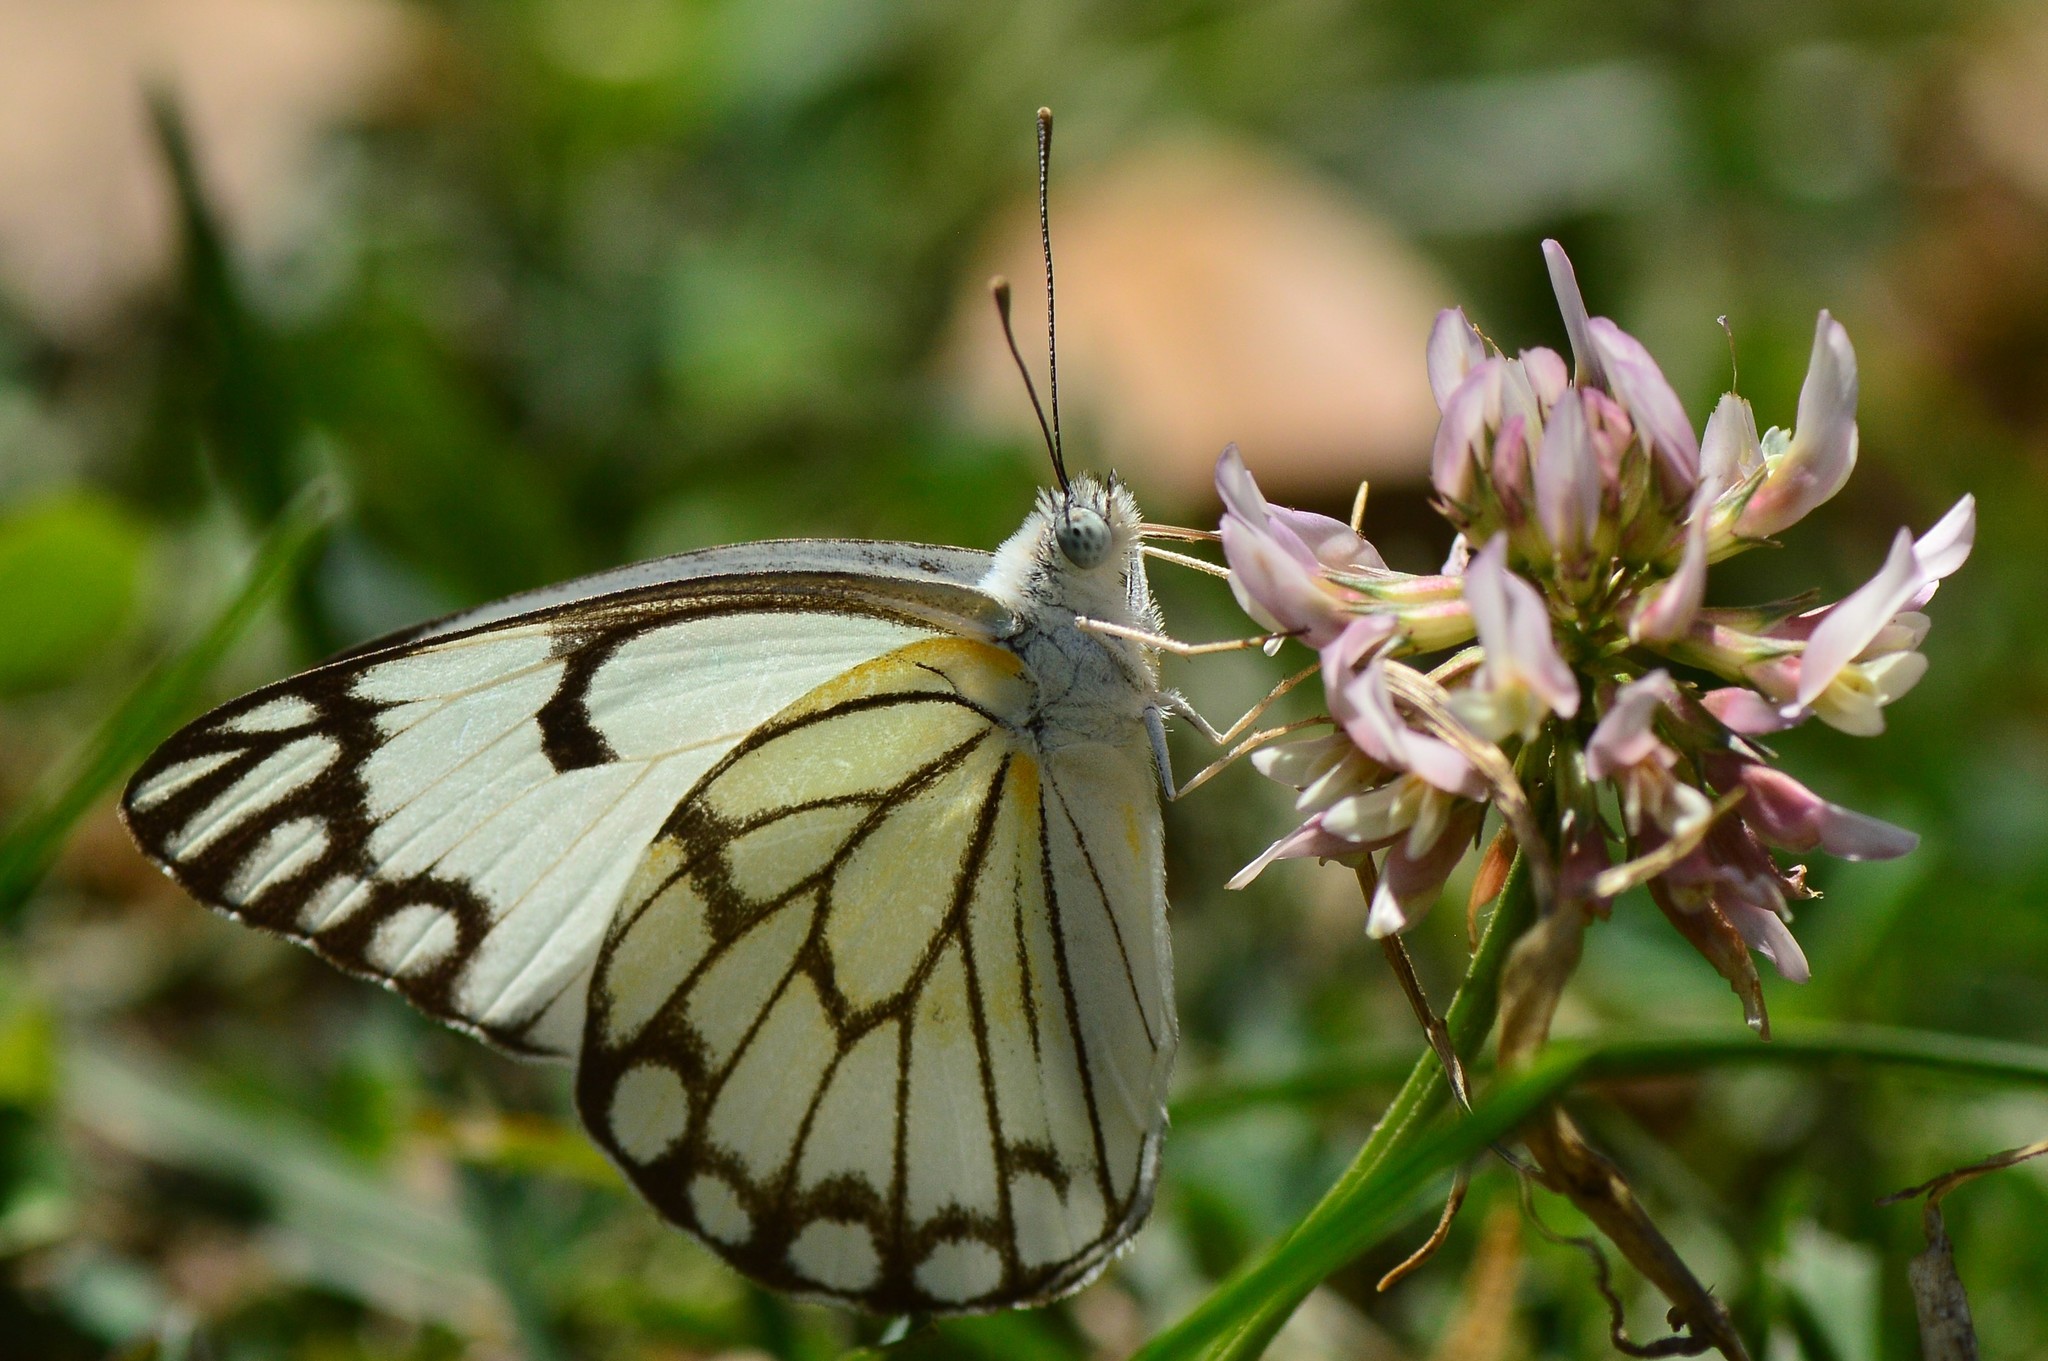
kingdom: Animalia
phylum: Arthropoda
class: Insecta
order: Lepidoptera
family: Pieridae
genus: Belenois
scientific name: Belenois aurota
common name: Brown-veined white
